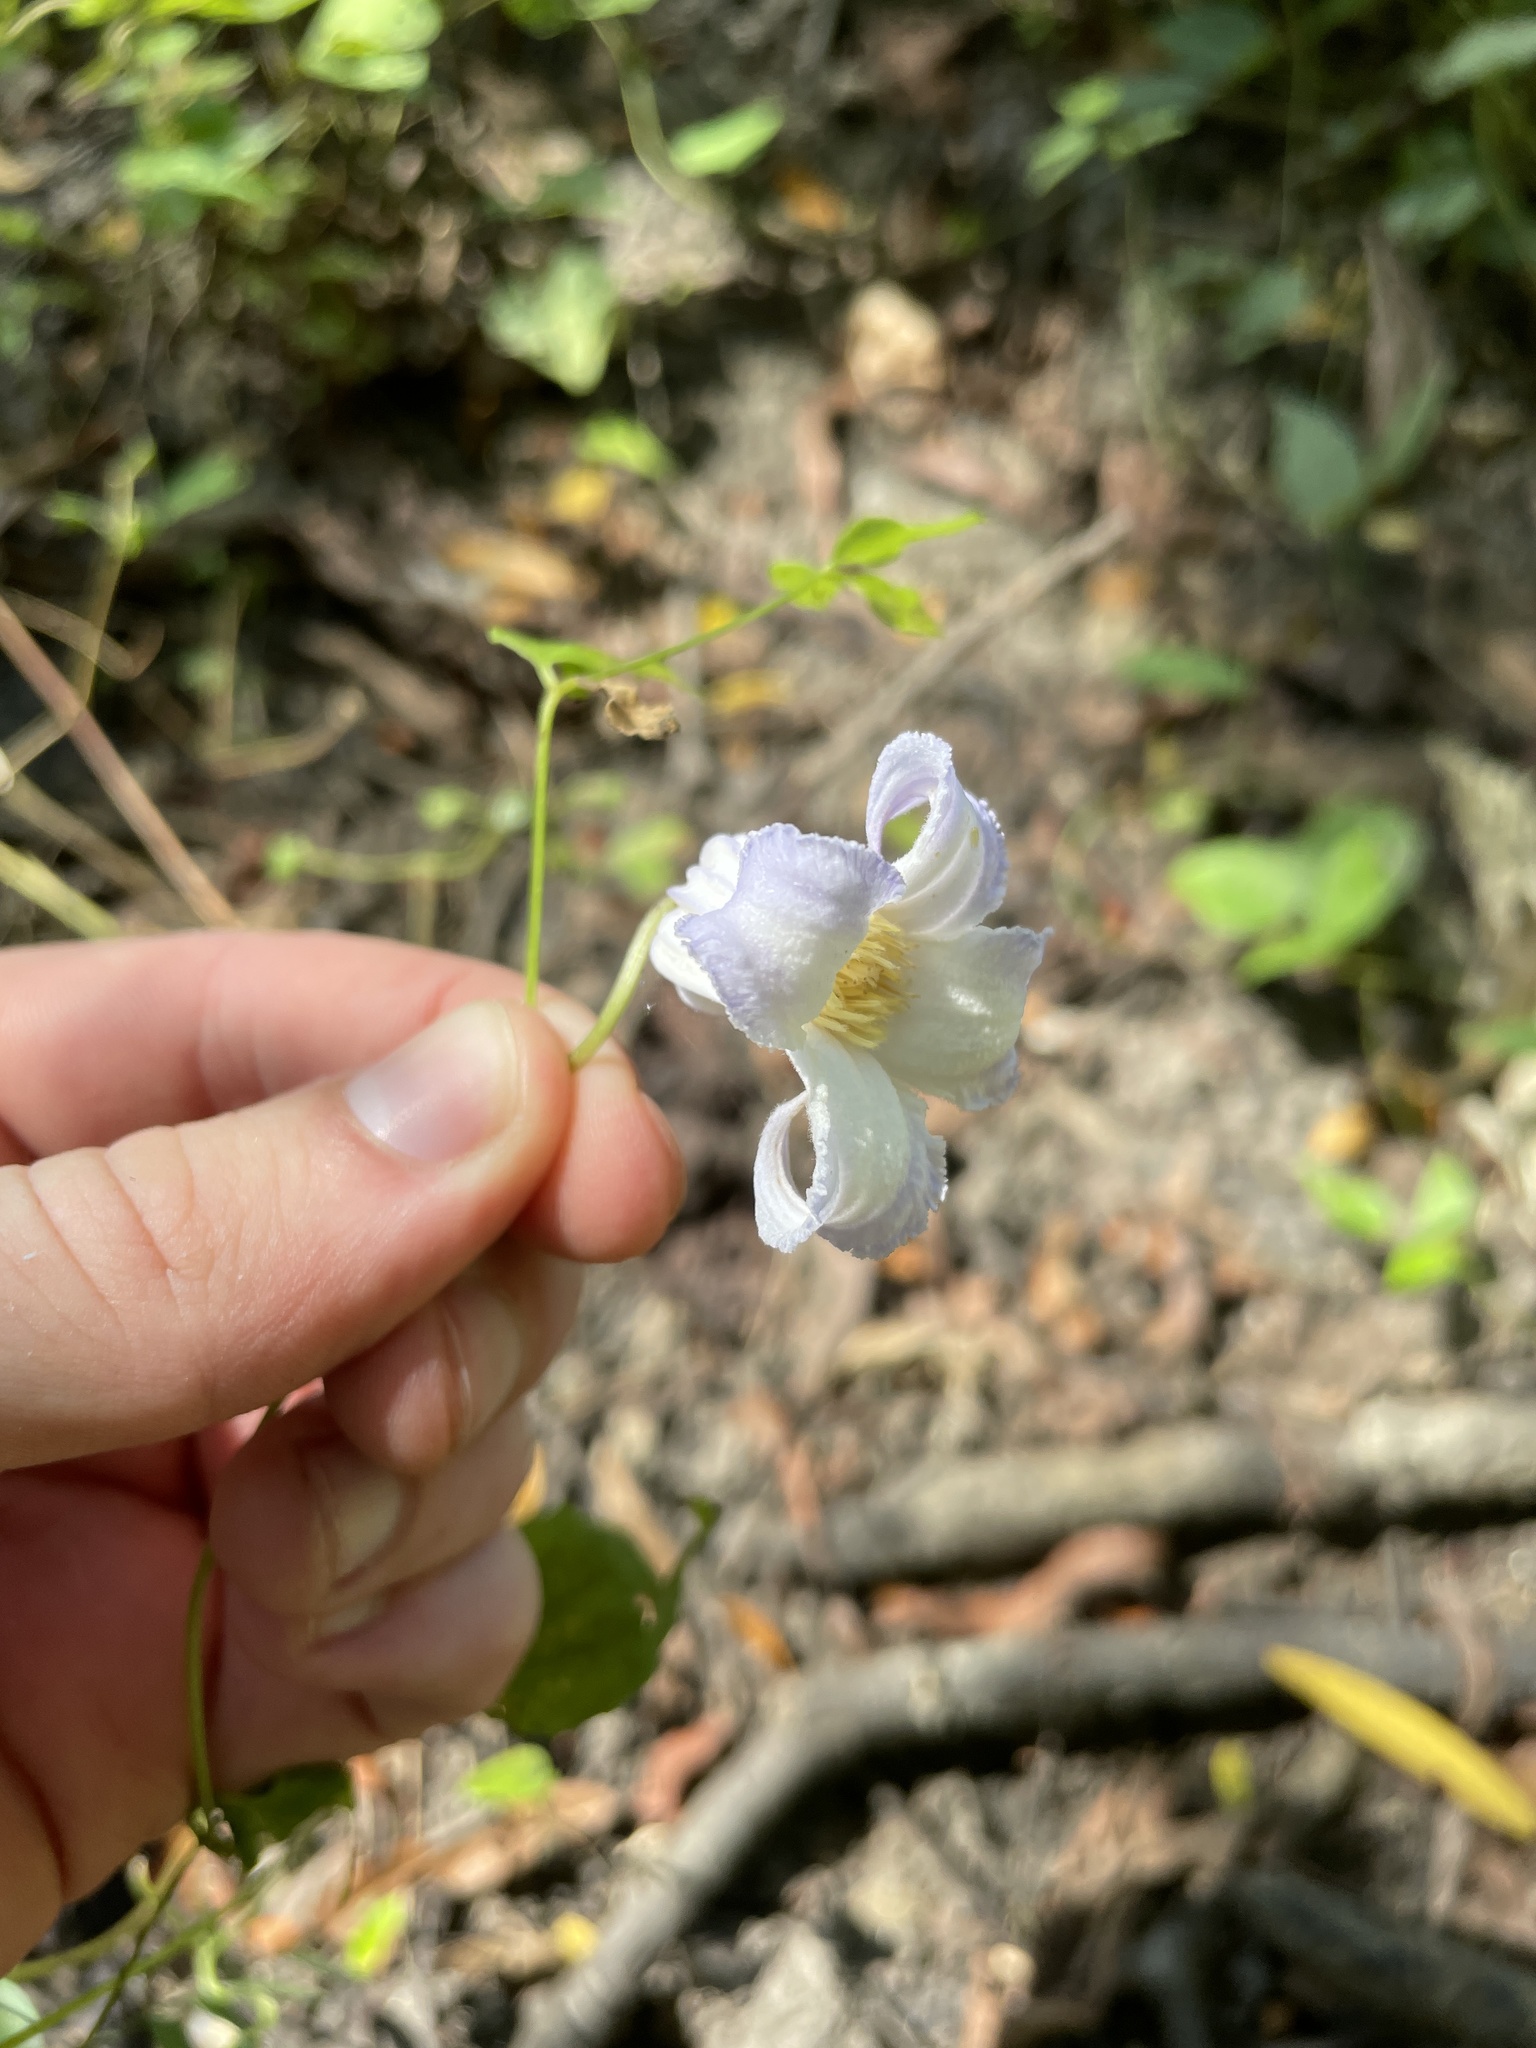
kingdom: Plantae
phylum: Tracheophyta
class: Magnoliopsida
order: Ranunculales
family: Ranunculaceae
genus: Clematis
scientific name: Clematis crispa
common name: Curly clematis
